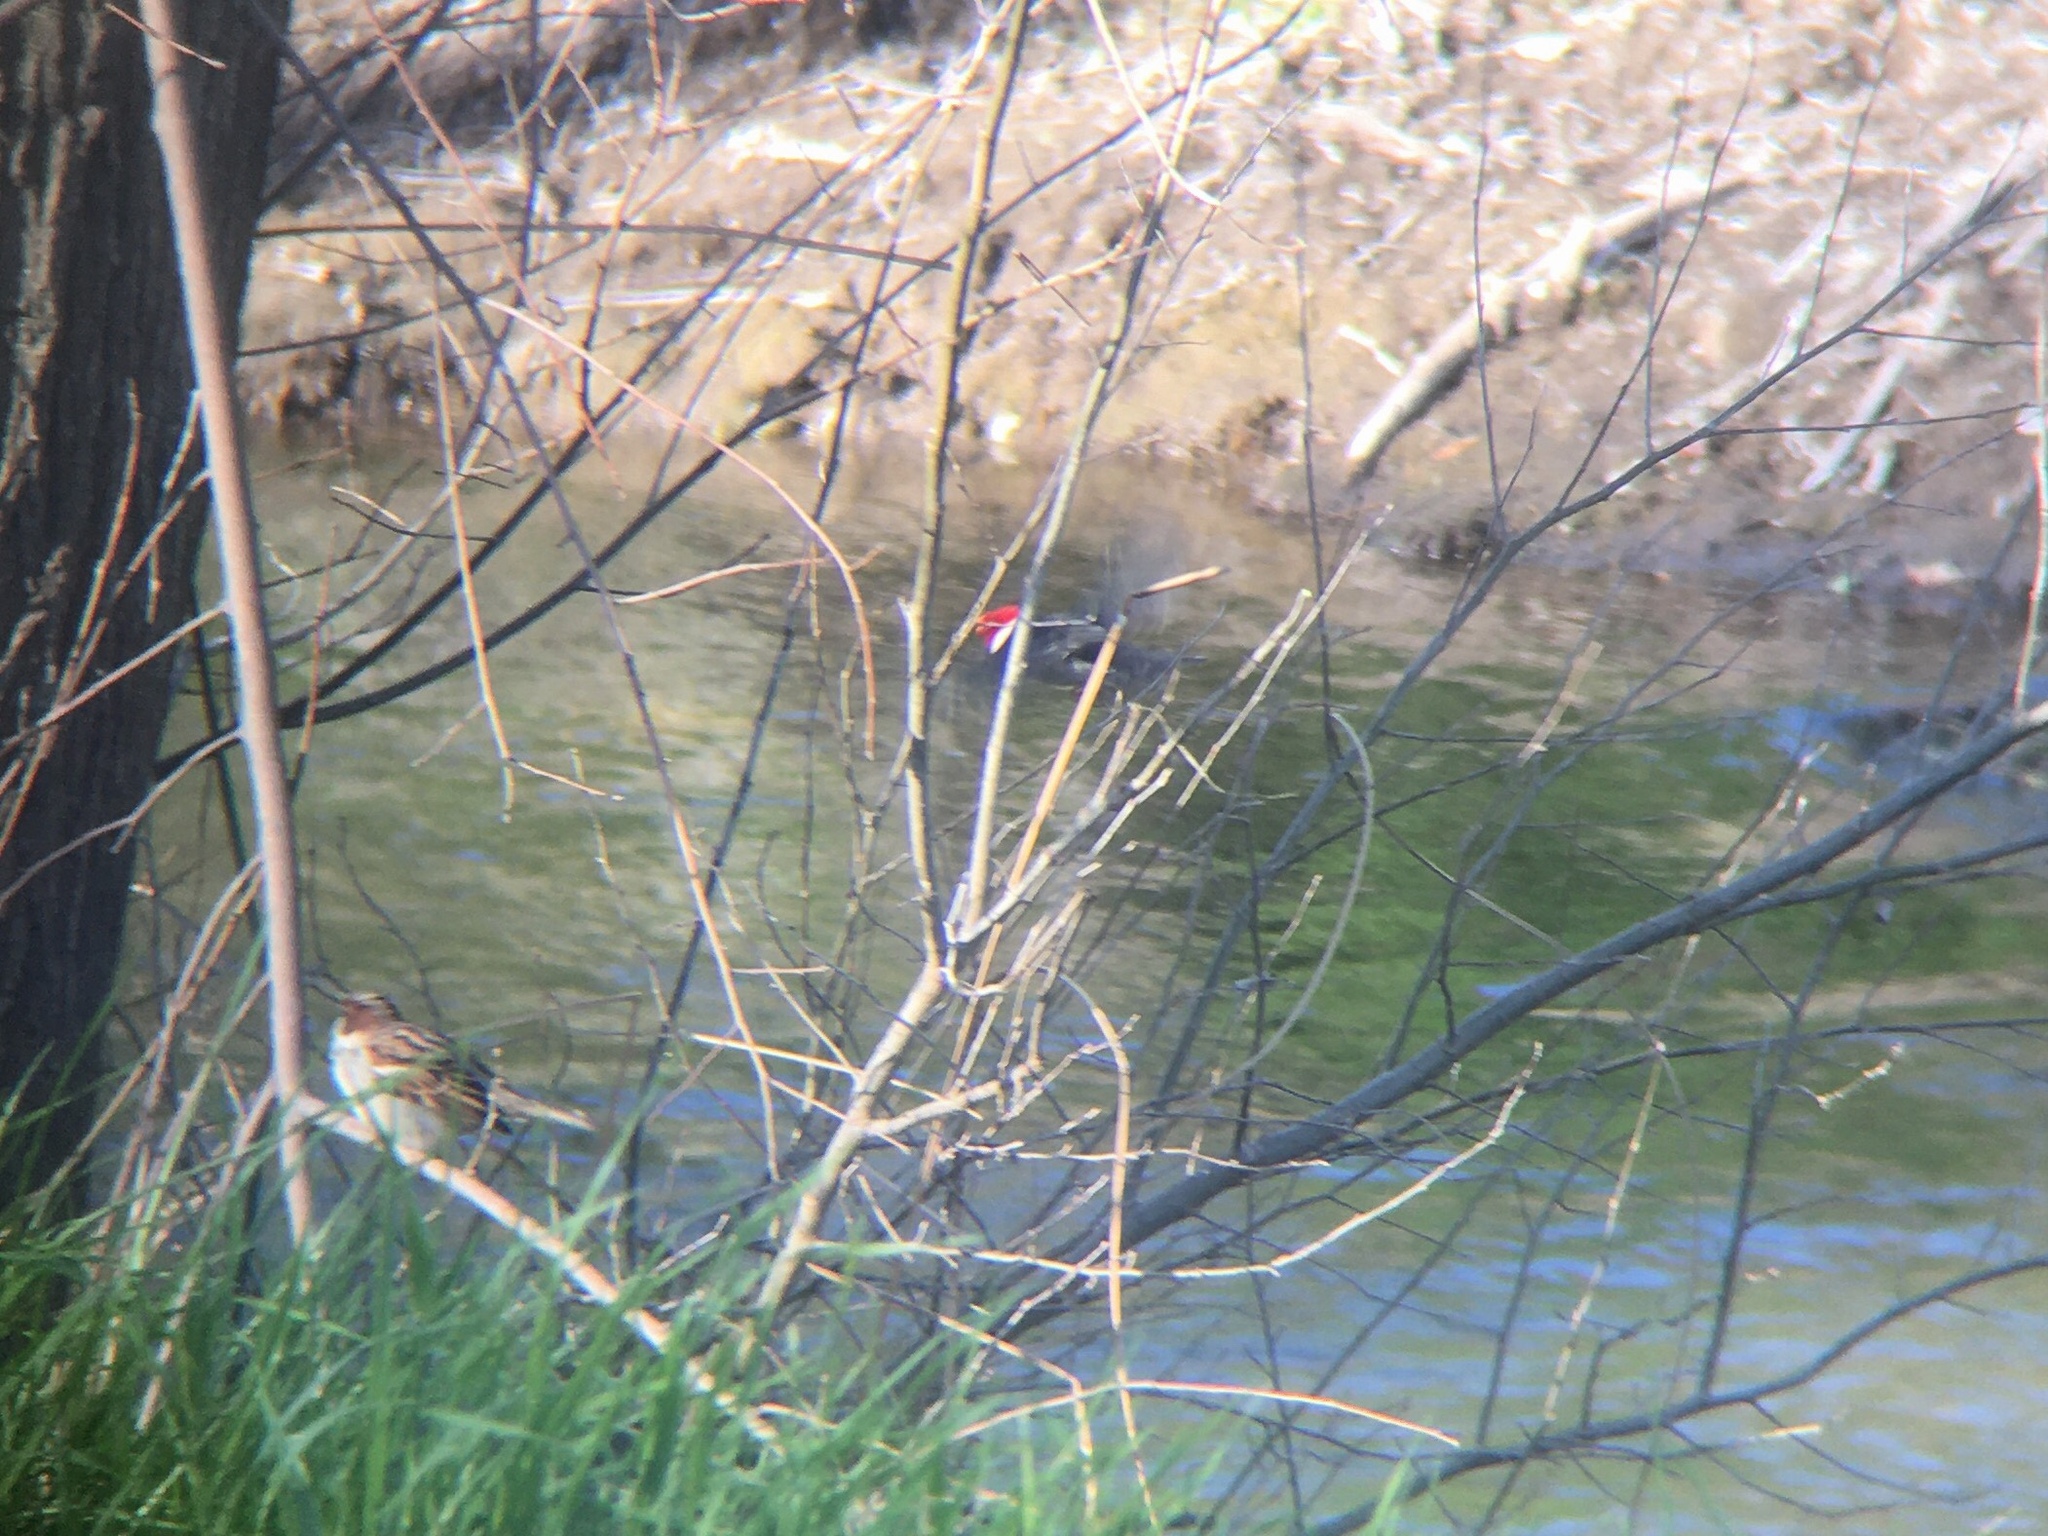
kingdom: Animalia
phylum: Chordata
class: Aves
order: Passeriformes
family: Thraupidae
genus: Paroaria
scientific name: Paroaria capitata
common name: Yellow-billed cardinal
